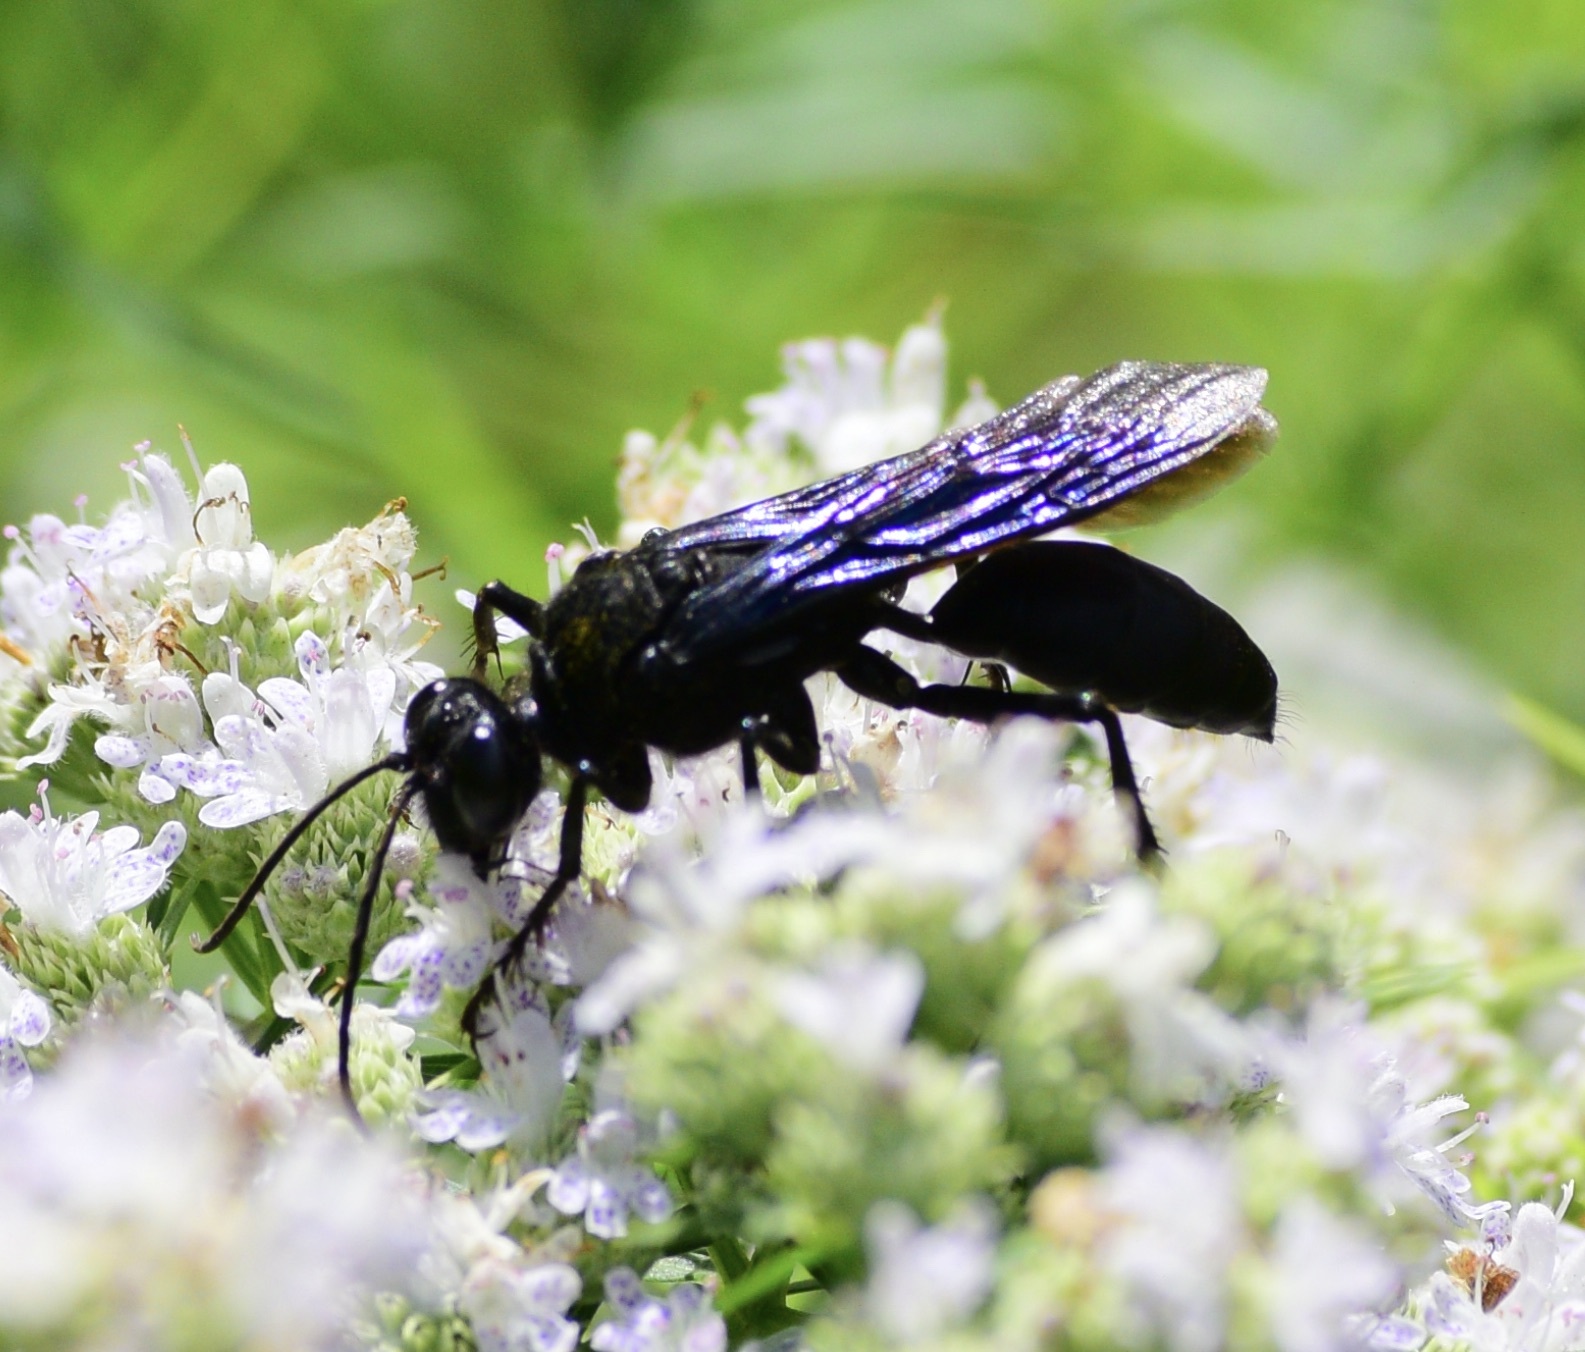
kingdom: Animalia
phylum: Arthropoda
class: Insecta
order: Hymenoptera
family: Sphecidae
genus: Sphex
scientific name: Sphex pensylvanicus
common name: Great black digger wasp
